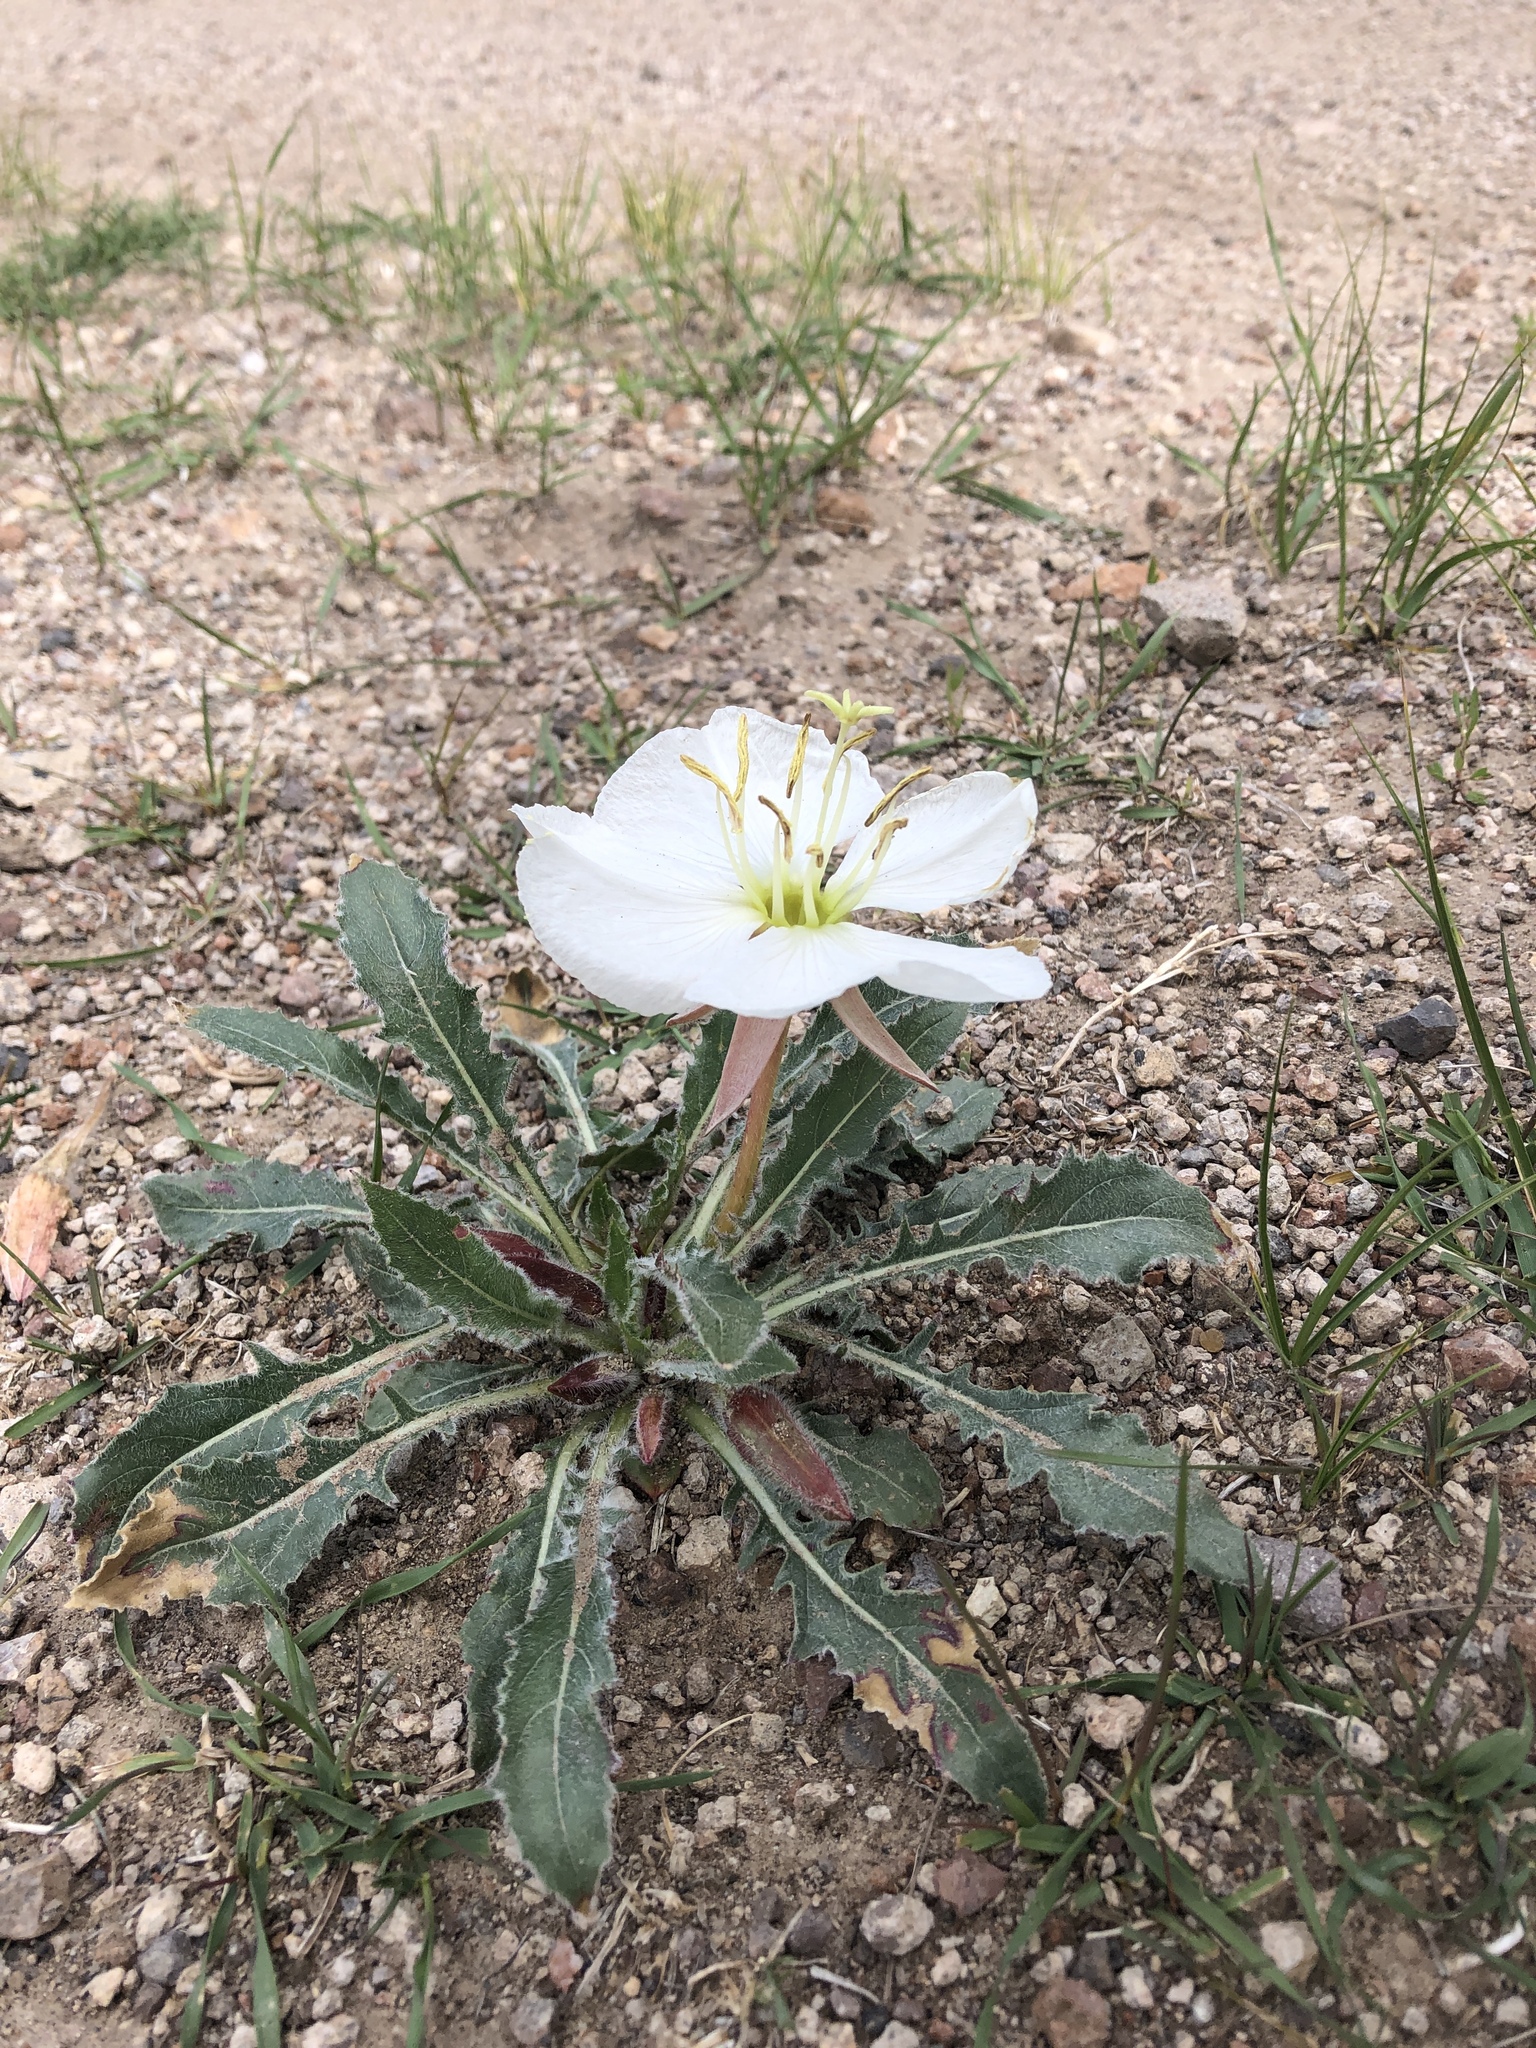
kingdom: Plantae
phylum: Tracheophyta
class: Magnoliopsida
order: Myrtales
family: Onagraceae
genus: Oenothera
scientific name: Oenothera cespitosa
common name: Tufted evening-primrose
